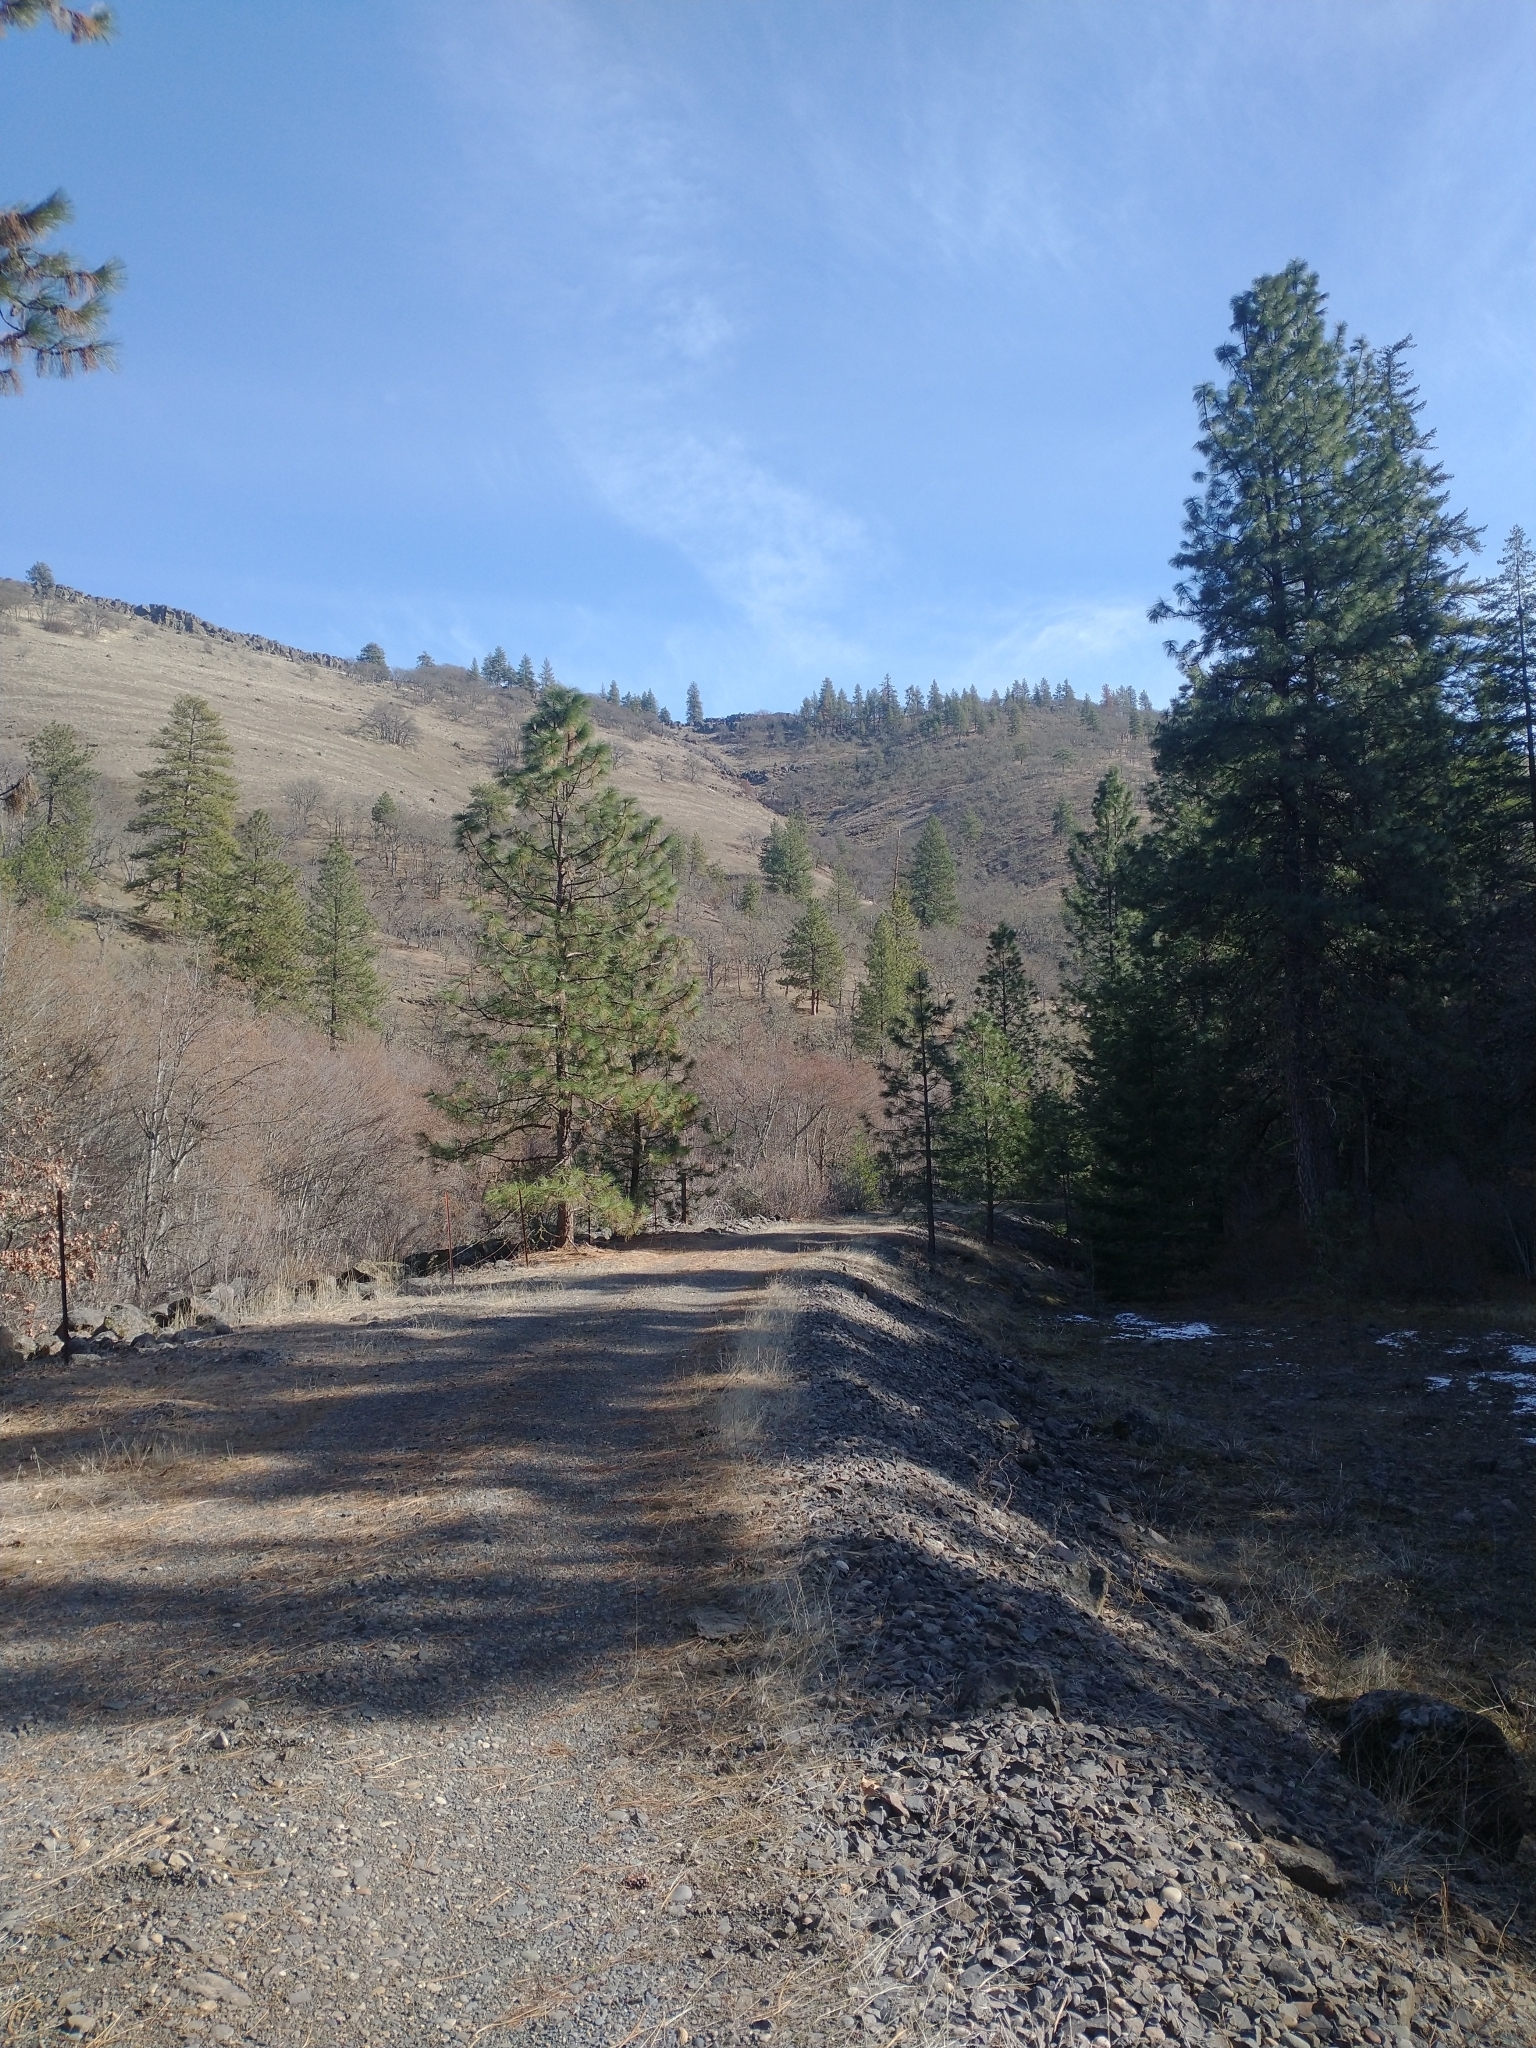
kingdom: Plantae
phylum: Tracheophyta
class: Pinopsida
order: Pinales
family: Pinaceae
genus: Pinus
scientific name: Pinus ponderosa
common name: Western yellow-pine
